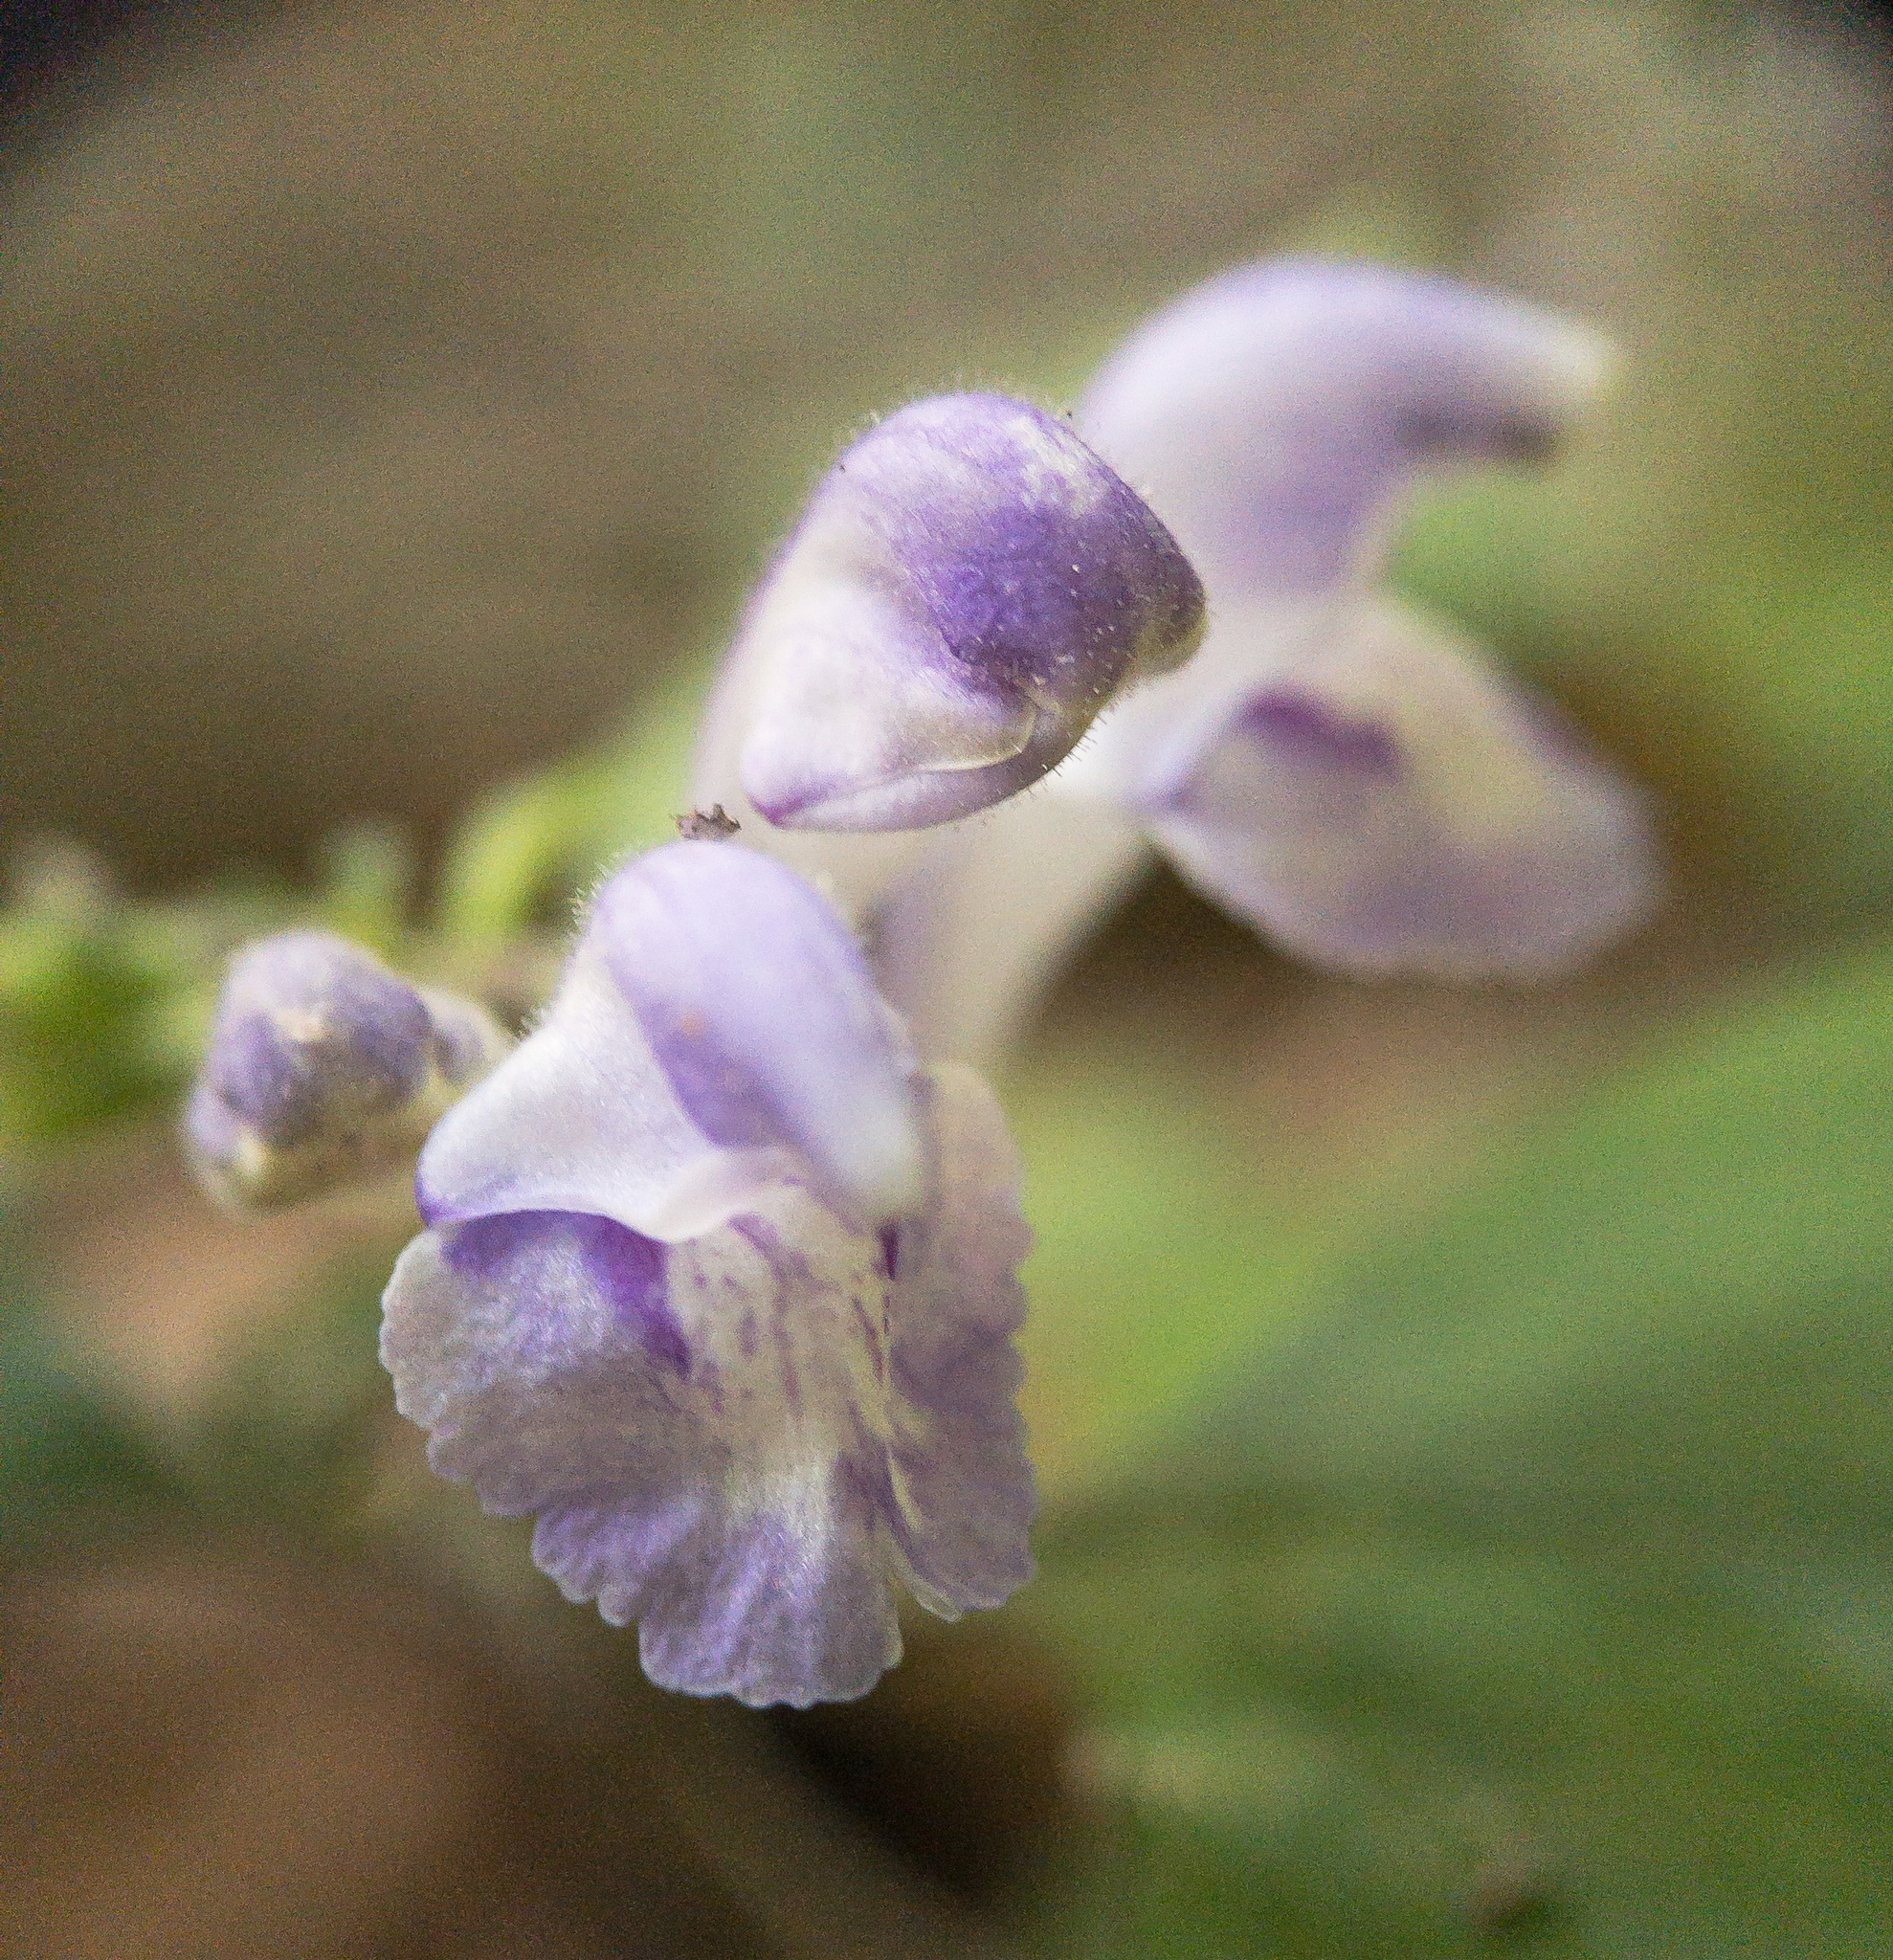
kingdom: Plantae
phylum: Tracheophyta
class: Magnoliopsida
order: Lamiales
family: Lamiaceae
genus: Scutellaria
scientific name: Scutellaria elliptica
